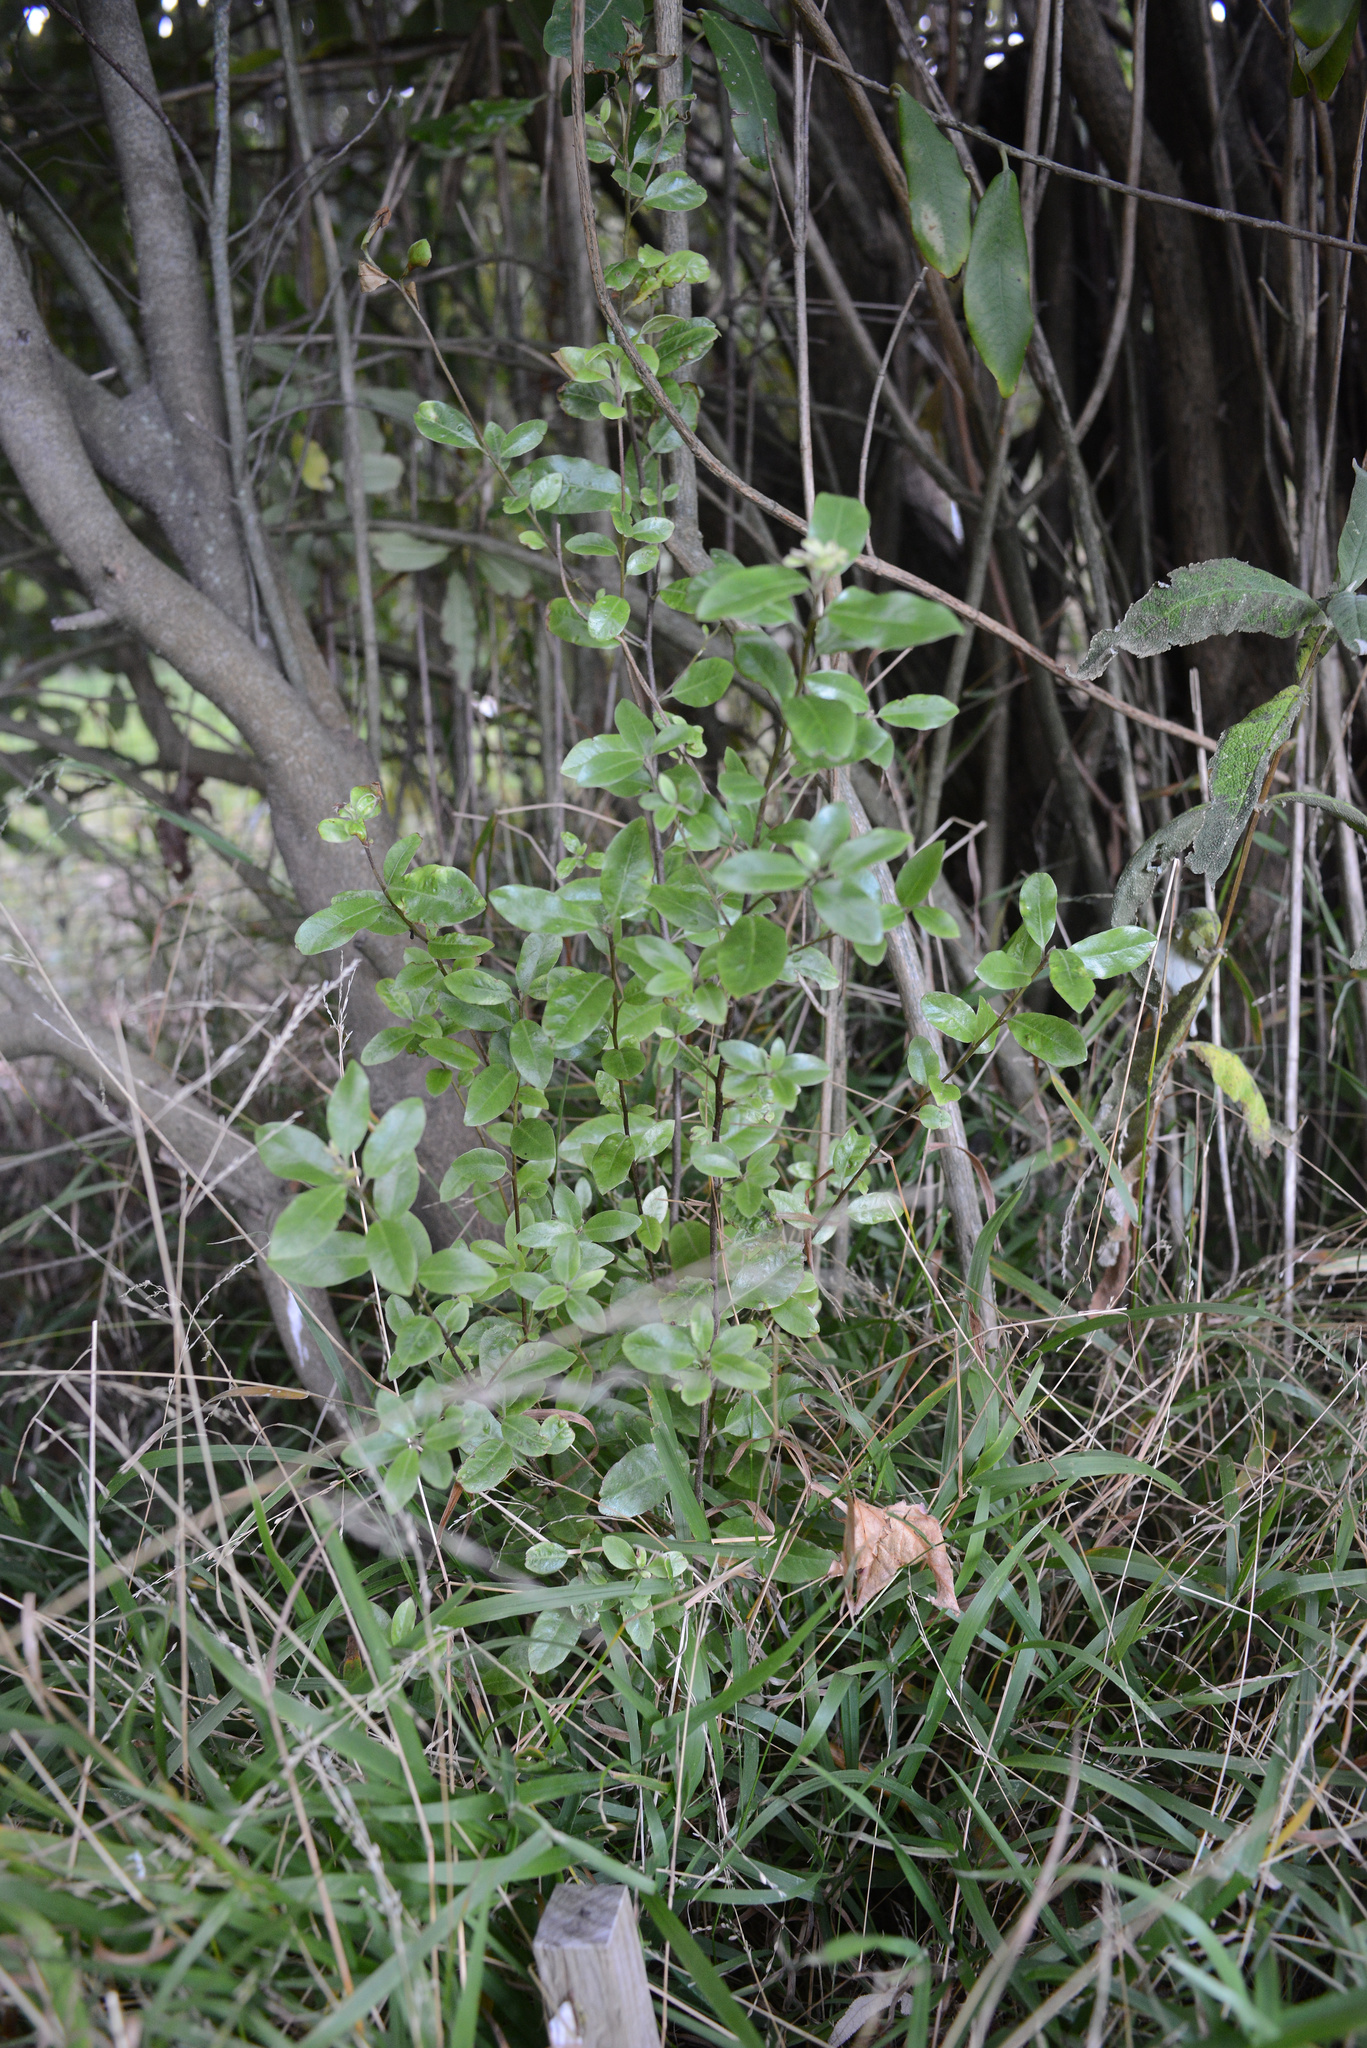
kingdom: Plantae
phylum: Tracheophyta
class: Magnoliopsida
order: Apiales
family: Pittosporaceae
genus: Pittosporum
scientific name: Pittosporum tenuifolium
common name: Kohuhu
